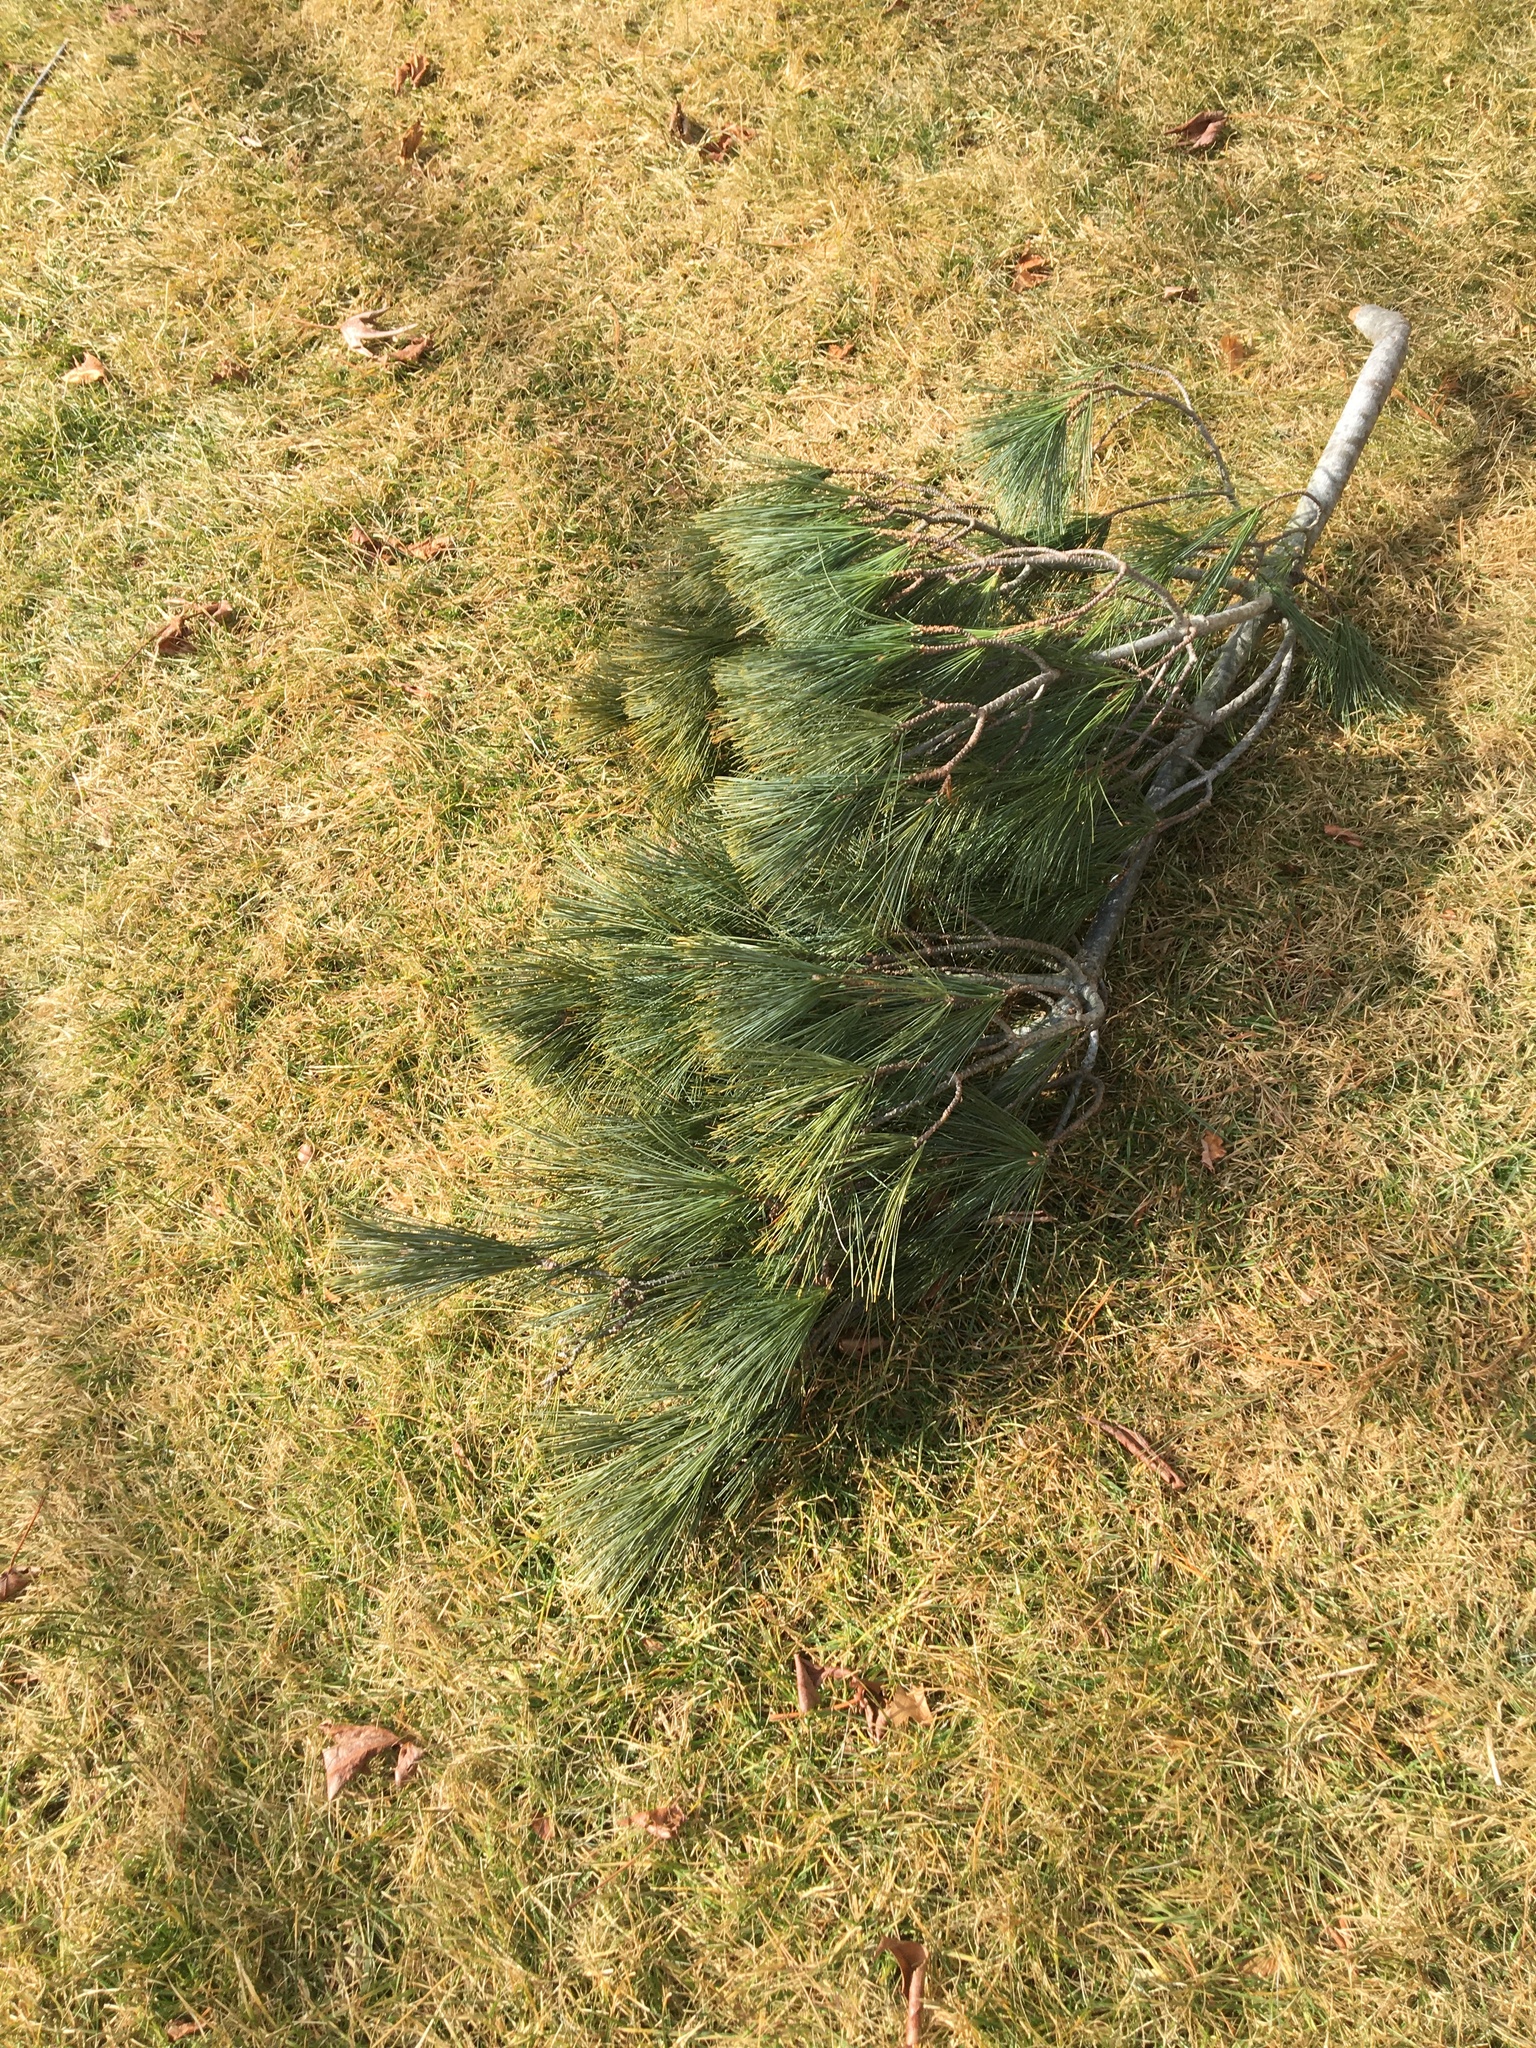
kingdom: Plantae
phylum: Tracheophyta
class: Pinopsida
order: Pinales
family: Pinaceae
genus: Pinus
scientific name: Pinus strobus
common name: Weymouth pine
